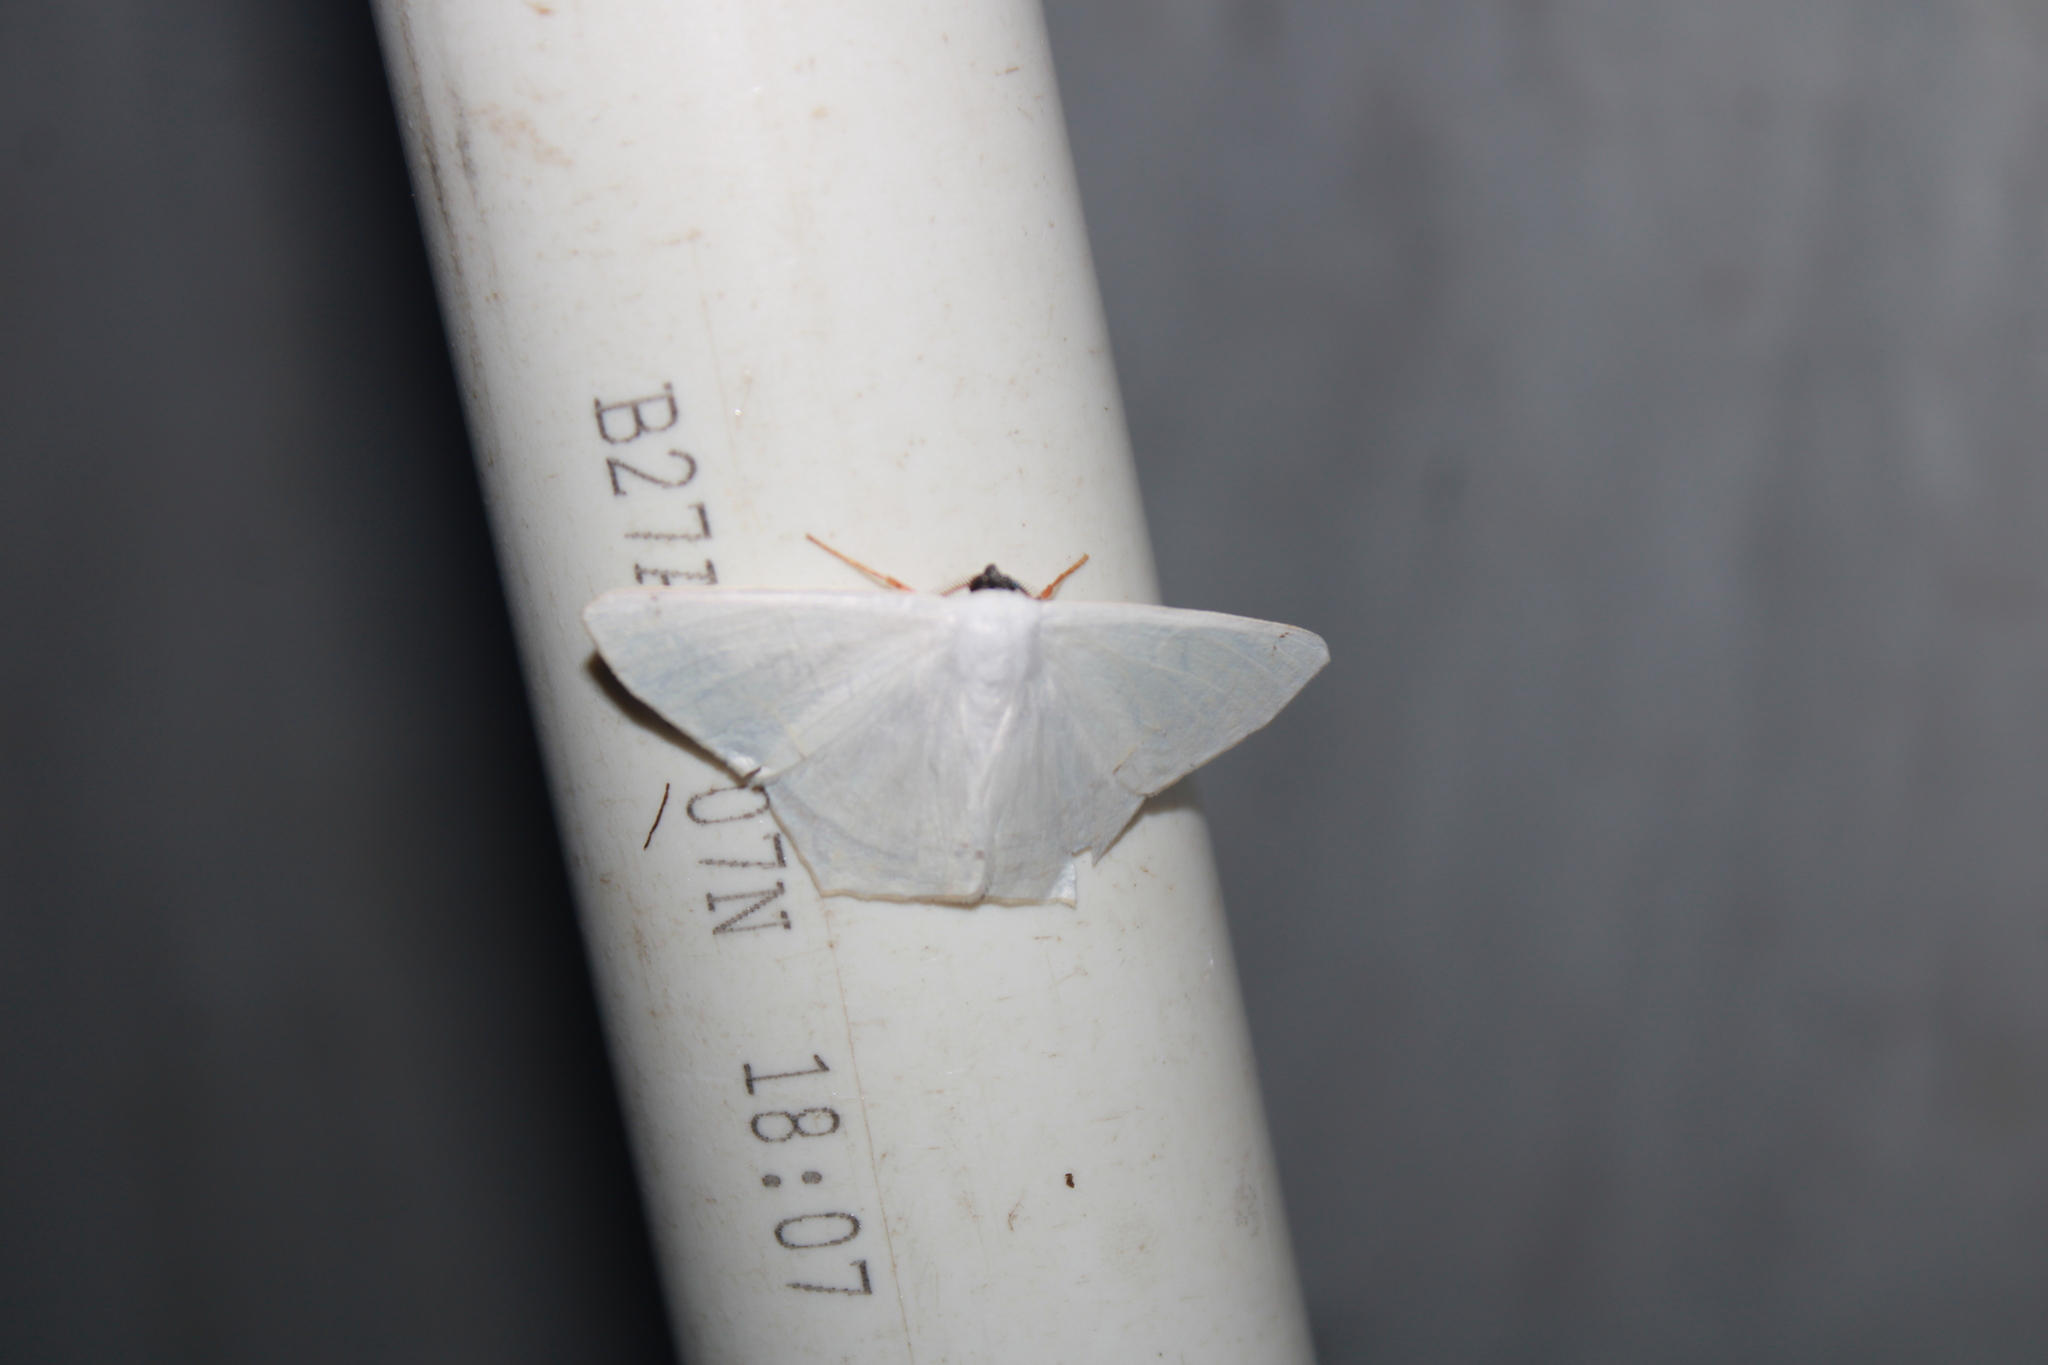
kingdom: Animalia
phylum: Arthropoda
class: Insecta
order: Lepidoptera
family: Geometridae
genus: Sericoptera
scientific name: Sericoptera virginaria
